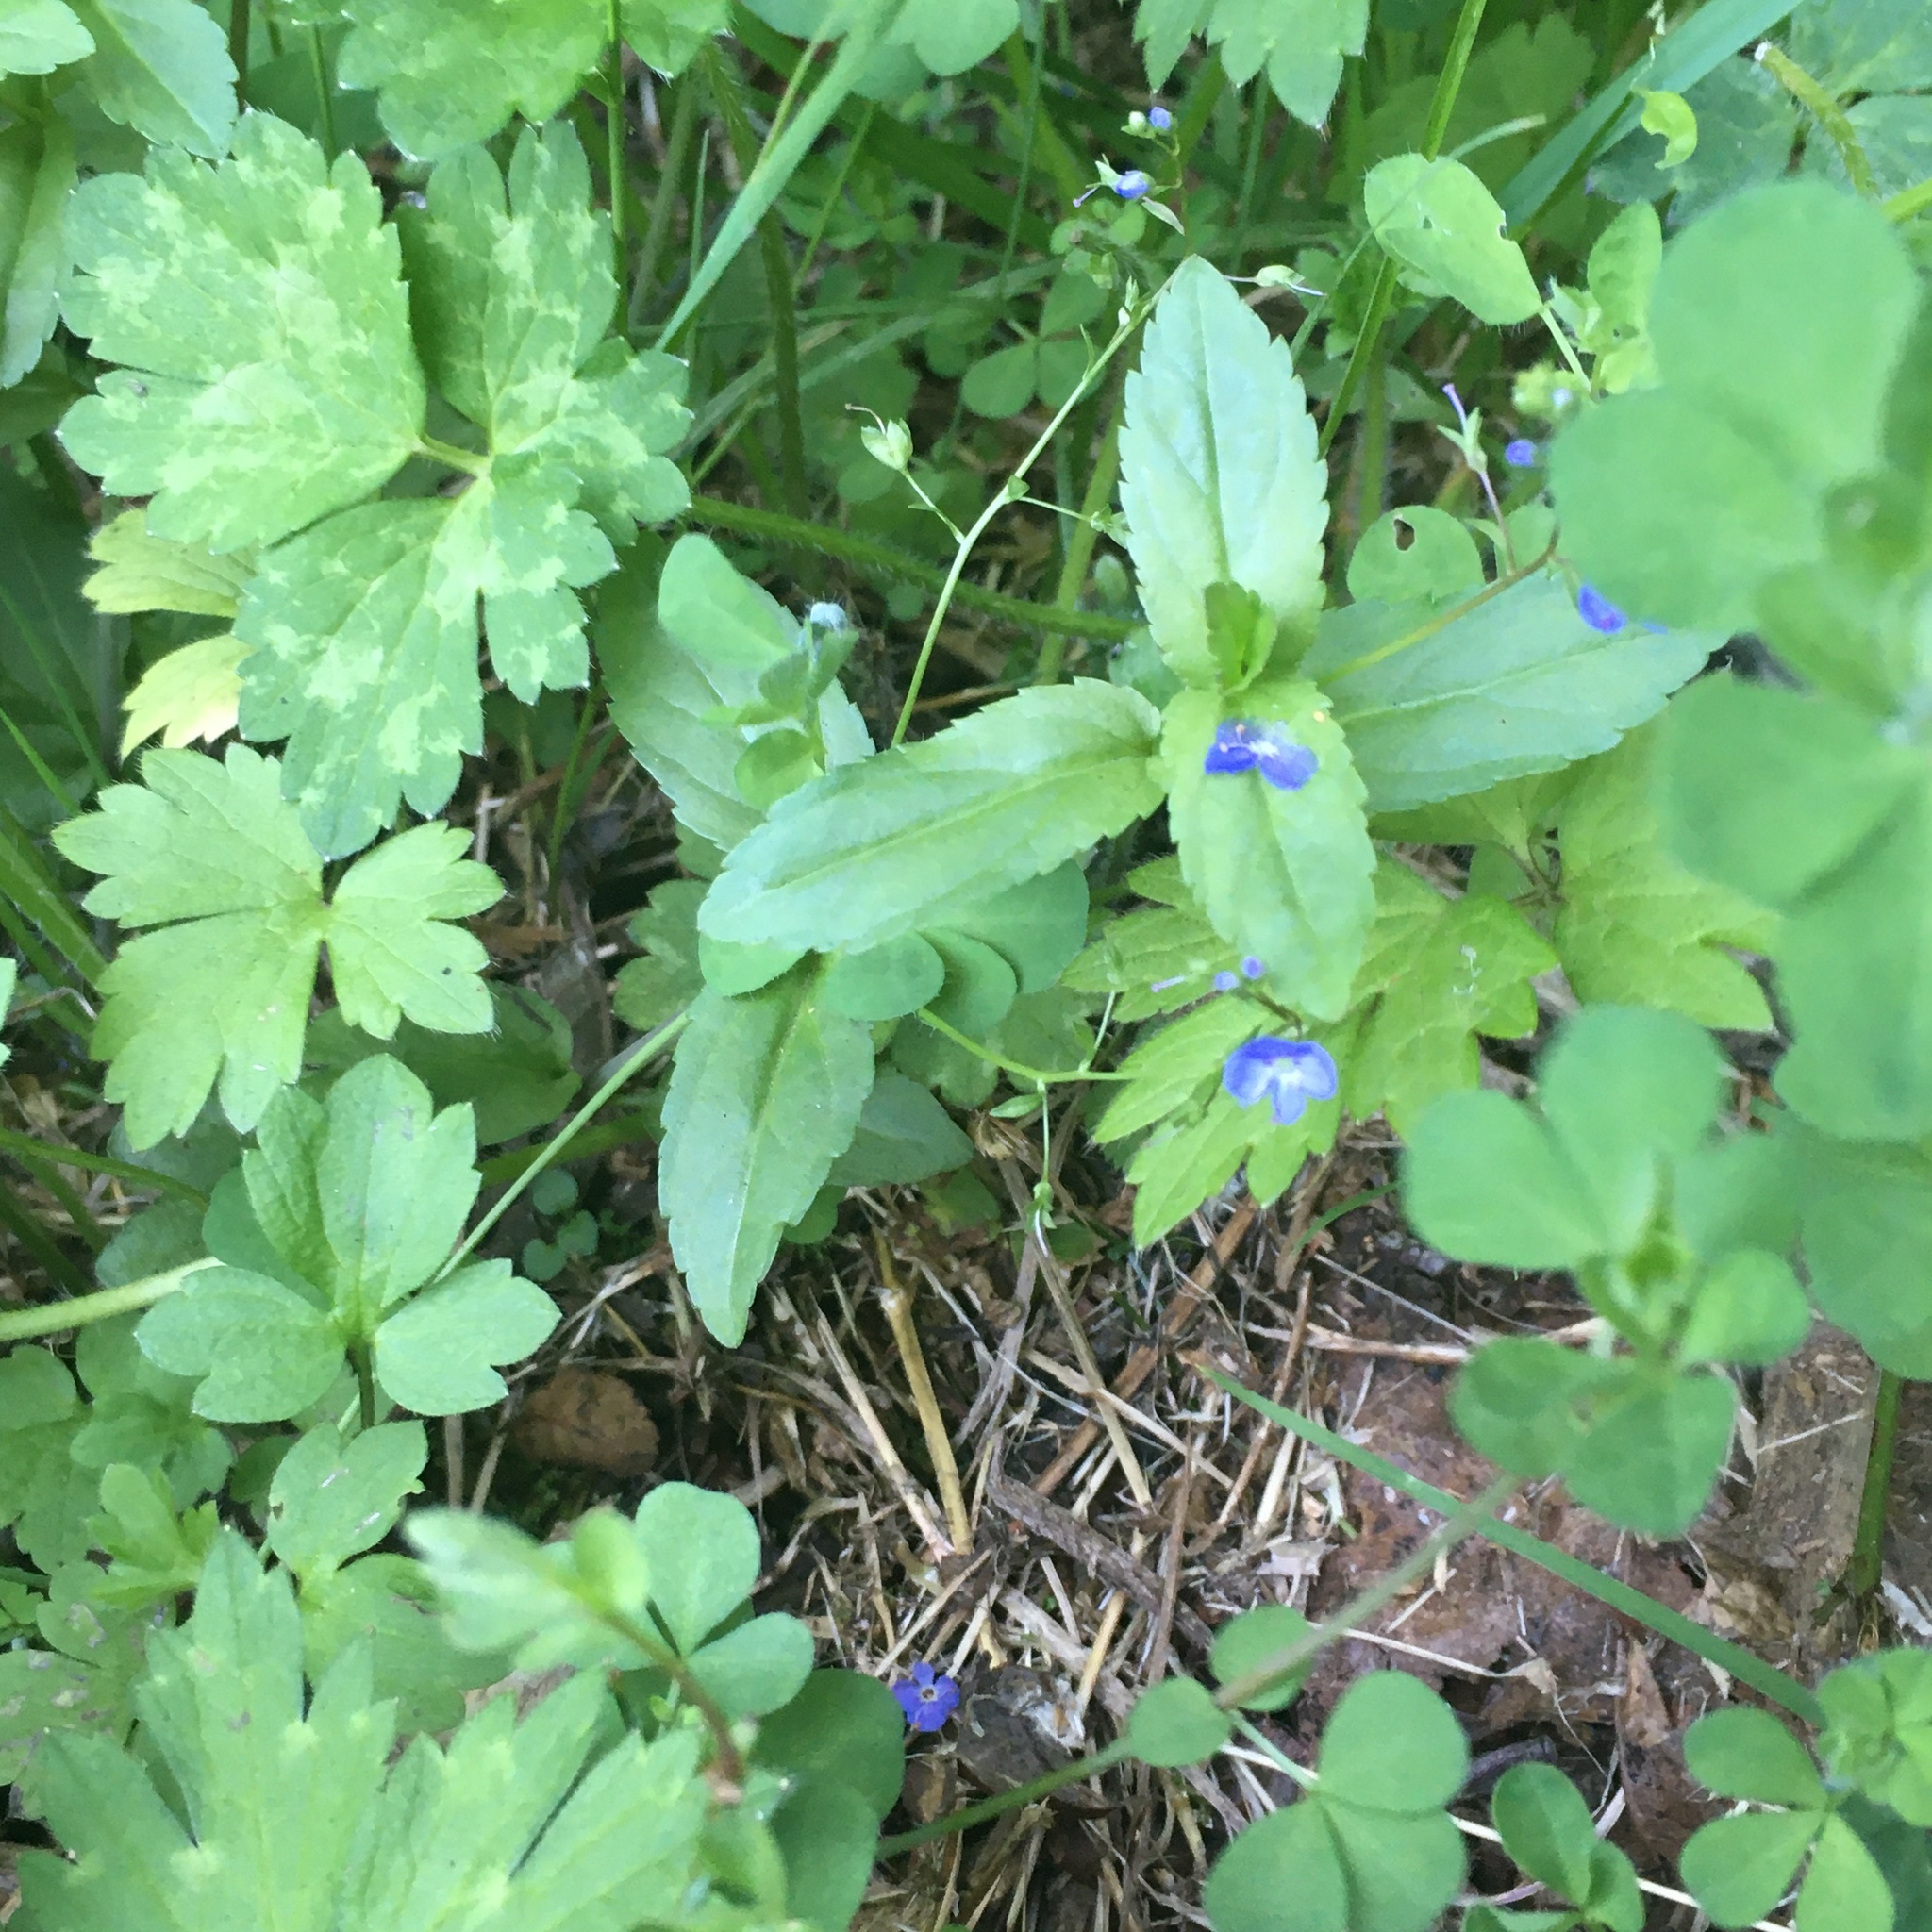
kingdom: Plantae
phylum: Tracheophyta
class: Magnoliopsida
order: Lamiales
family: Plantaginaceae
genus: Veronica
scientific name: Veronica americana
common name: American brooklime
